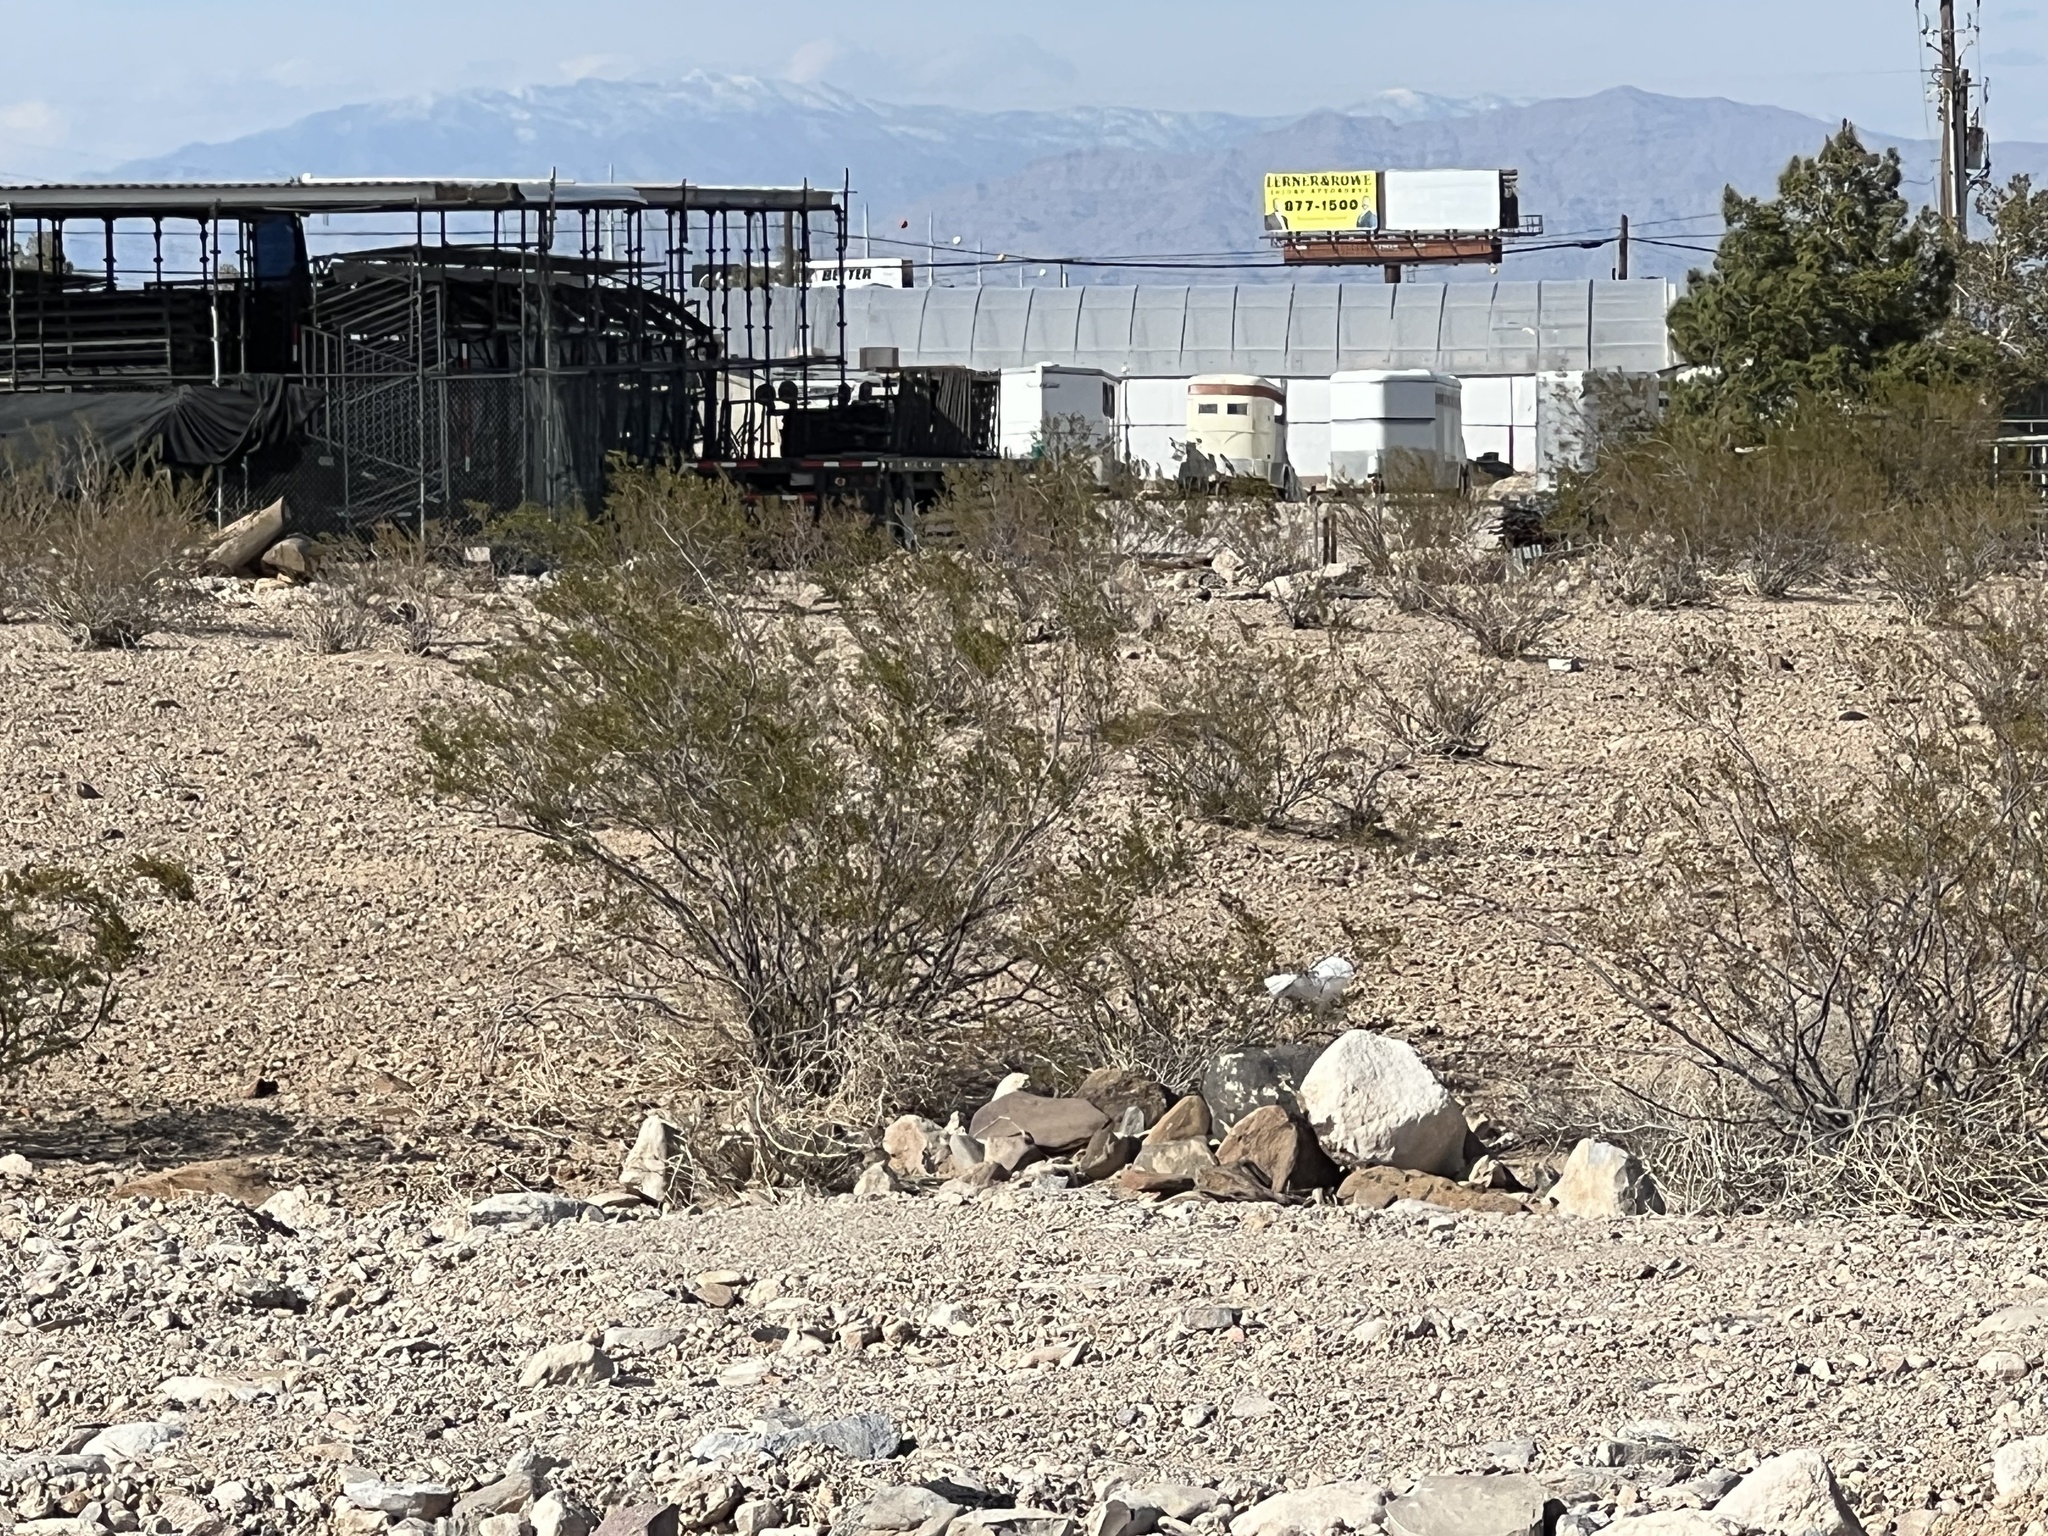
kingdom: Plantae
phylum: Tracheophyta
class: Magnoliopsida
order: Zygophyllales
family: Zygophyllaceae
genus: Larrea
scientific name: Larrea tridentata
